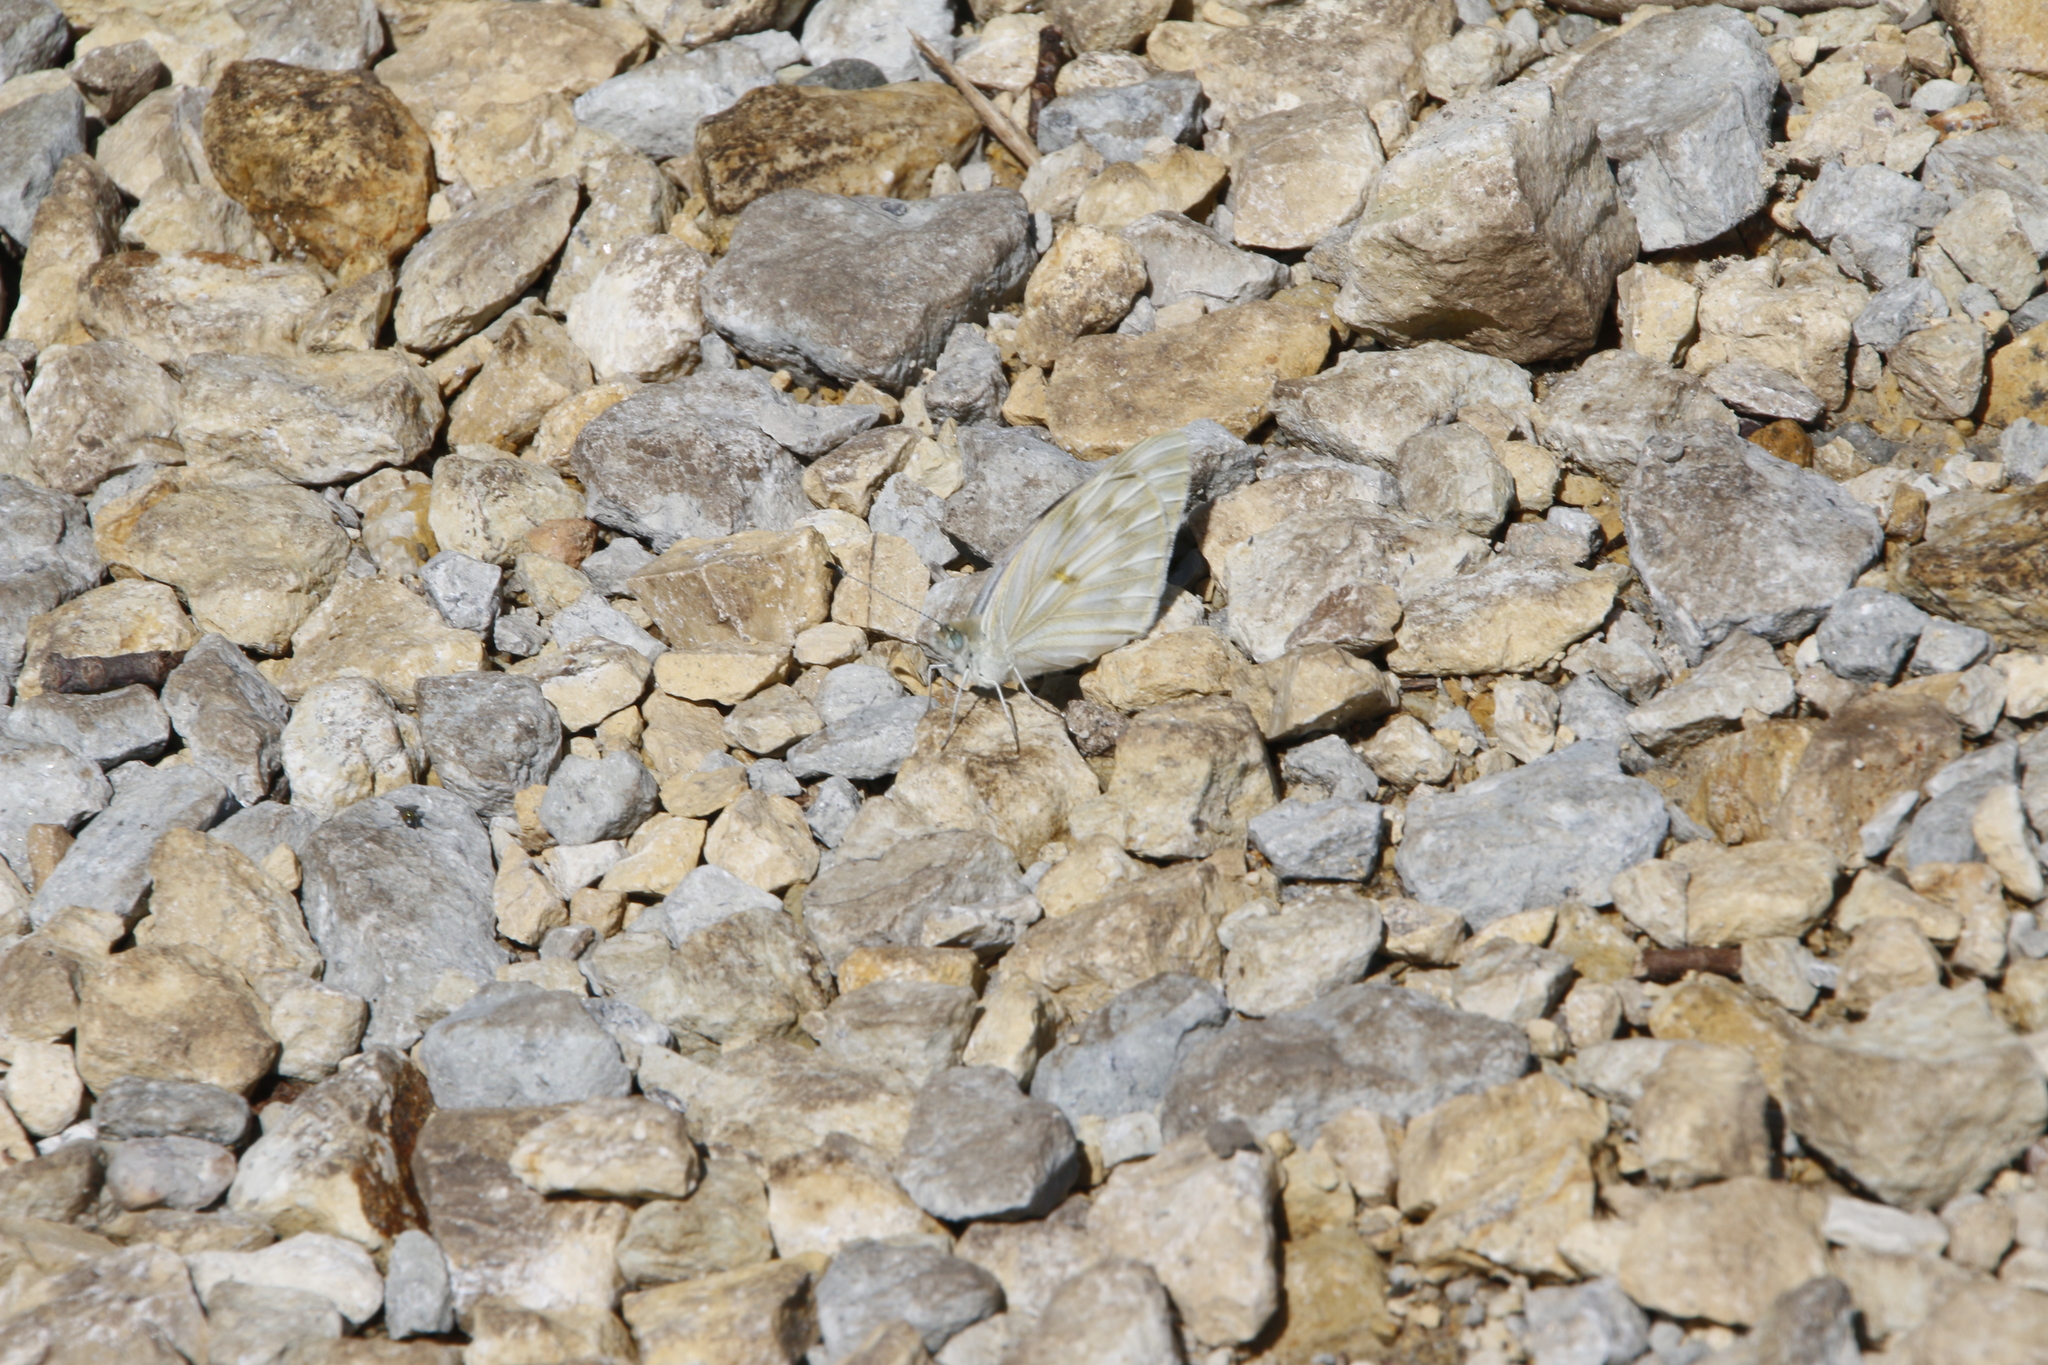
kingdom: Animalia
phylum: Arthropoda
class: Insecta
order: Lepidoptera
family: Pieridae
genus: Pontia
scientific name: Pontia protodice
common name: Checkered white
